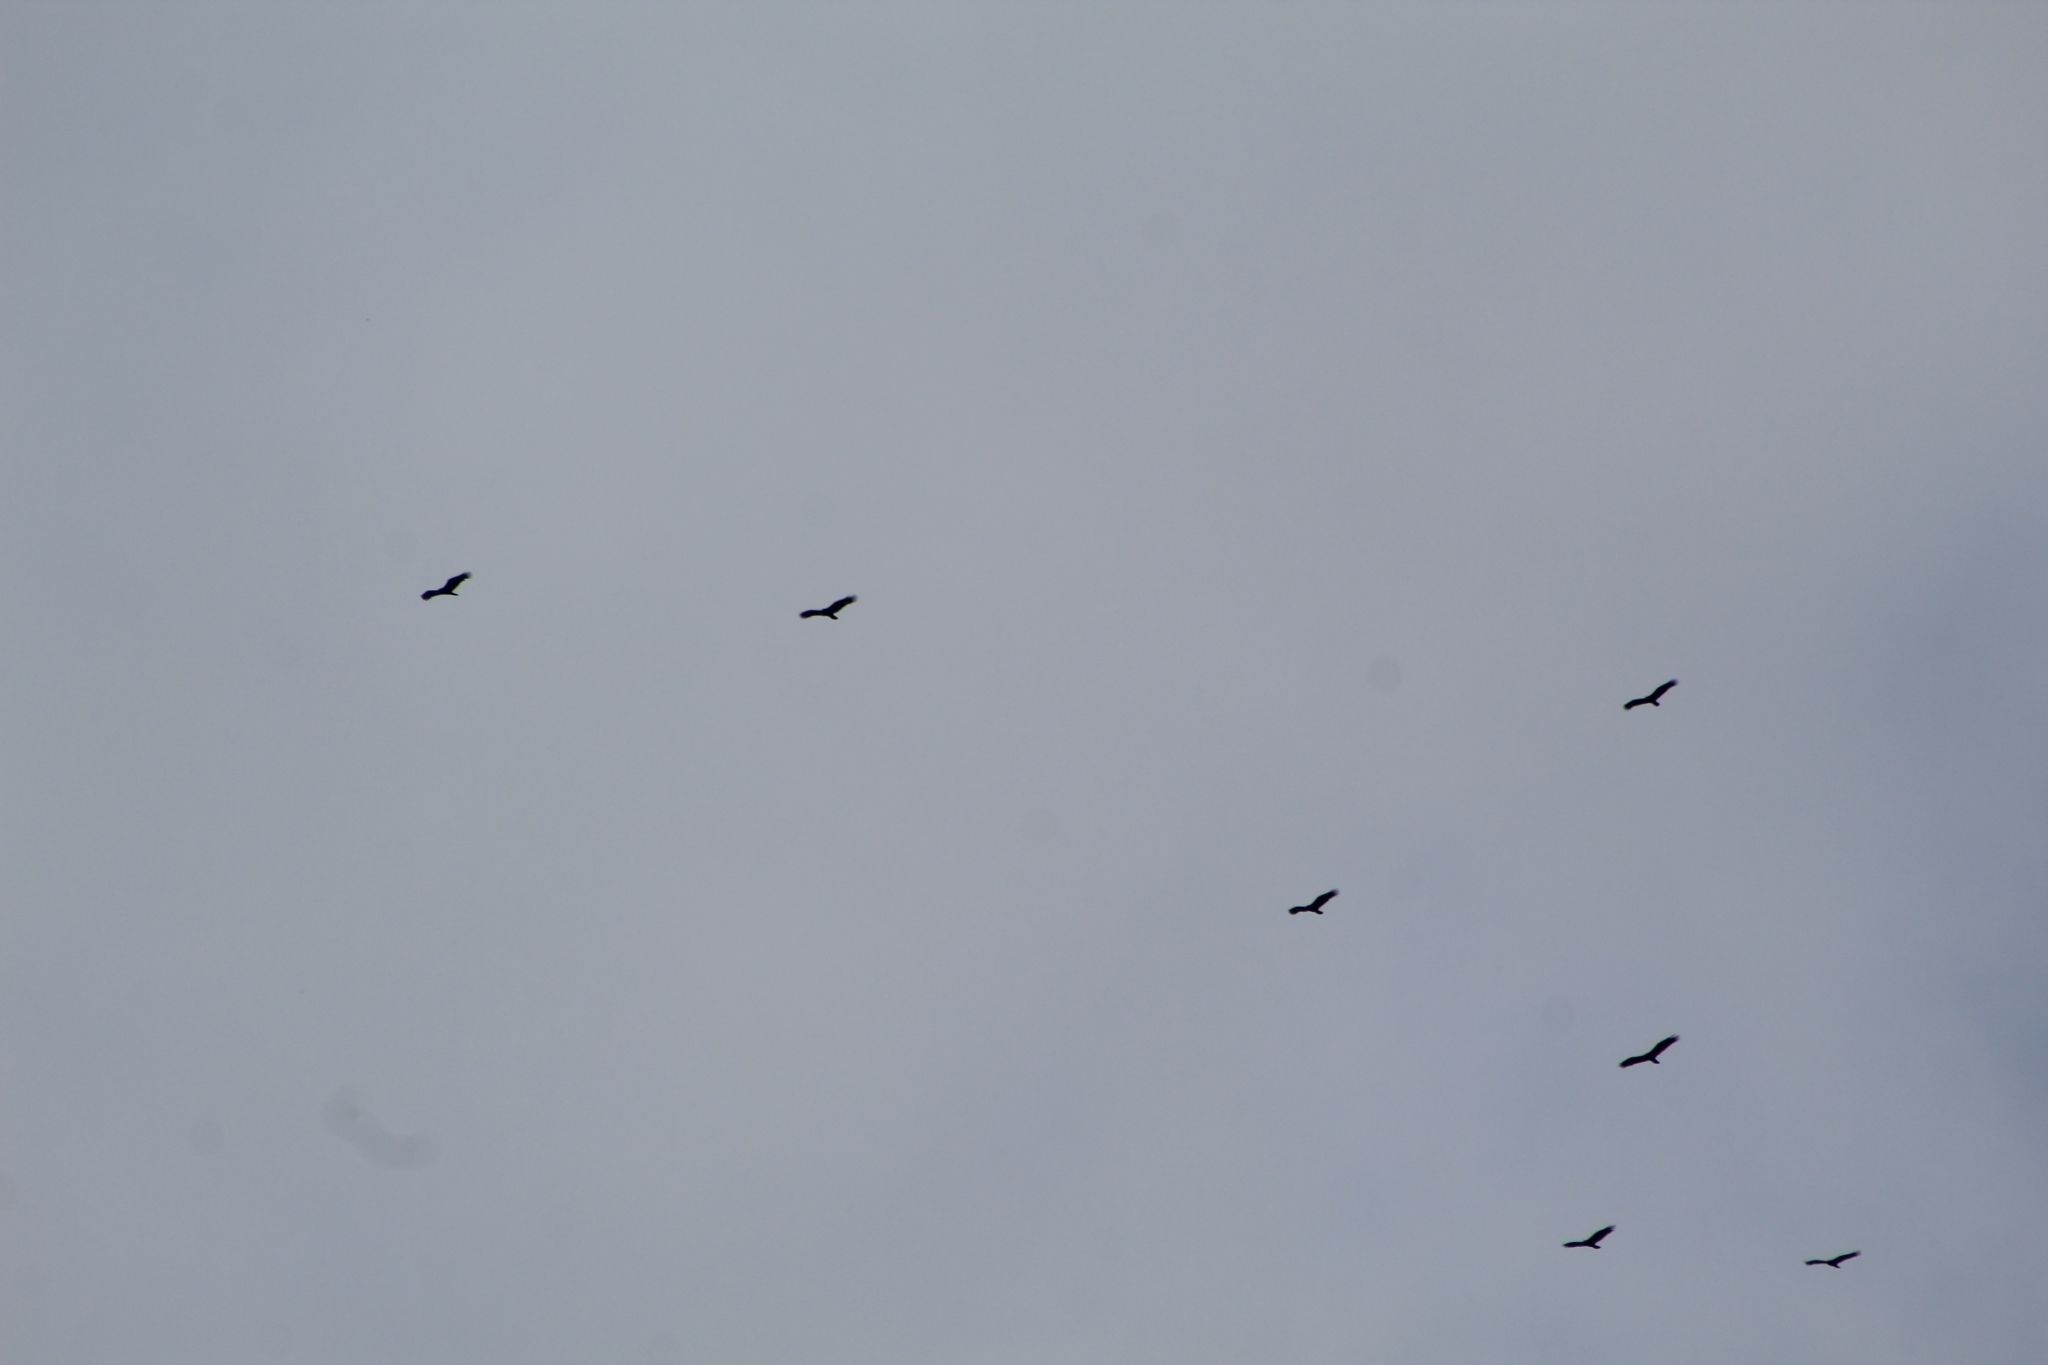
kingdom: Animalia
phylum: Chordata
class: Aves
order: Accipitriformes
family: Cathartidae
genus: Cathartes
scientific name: Cathartes aura
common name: Turkey vulture
